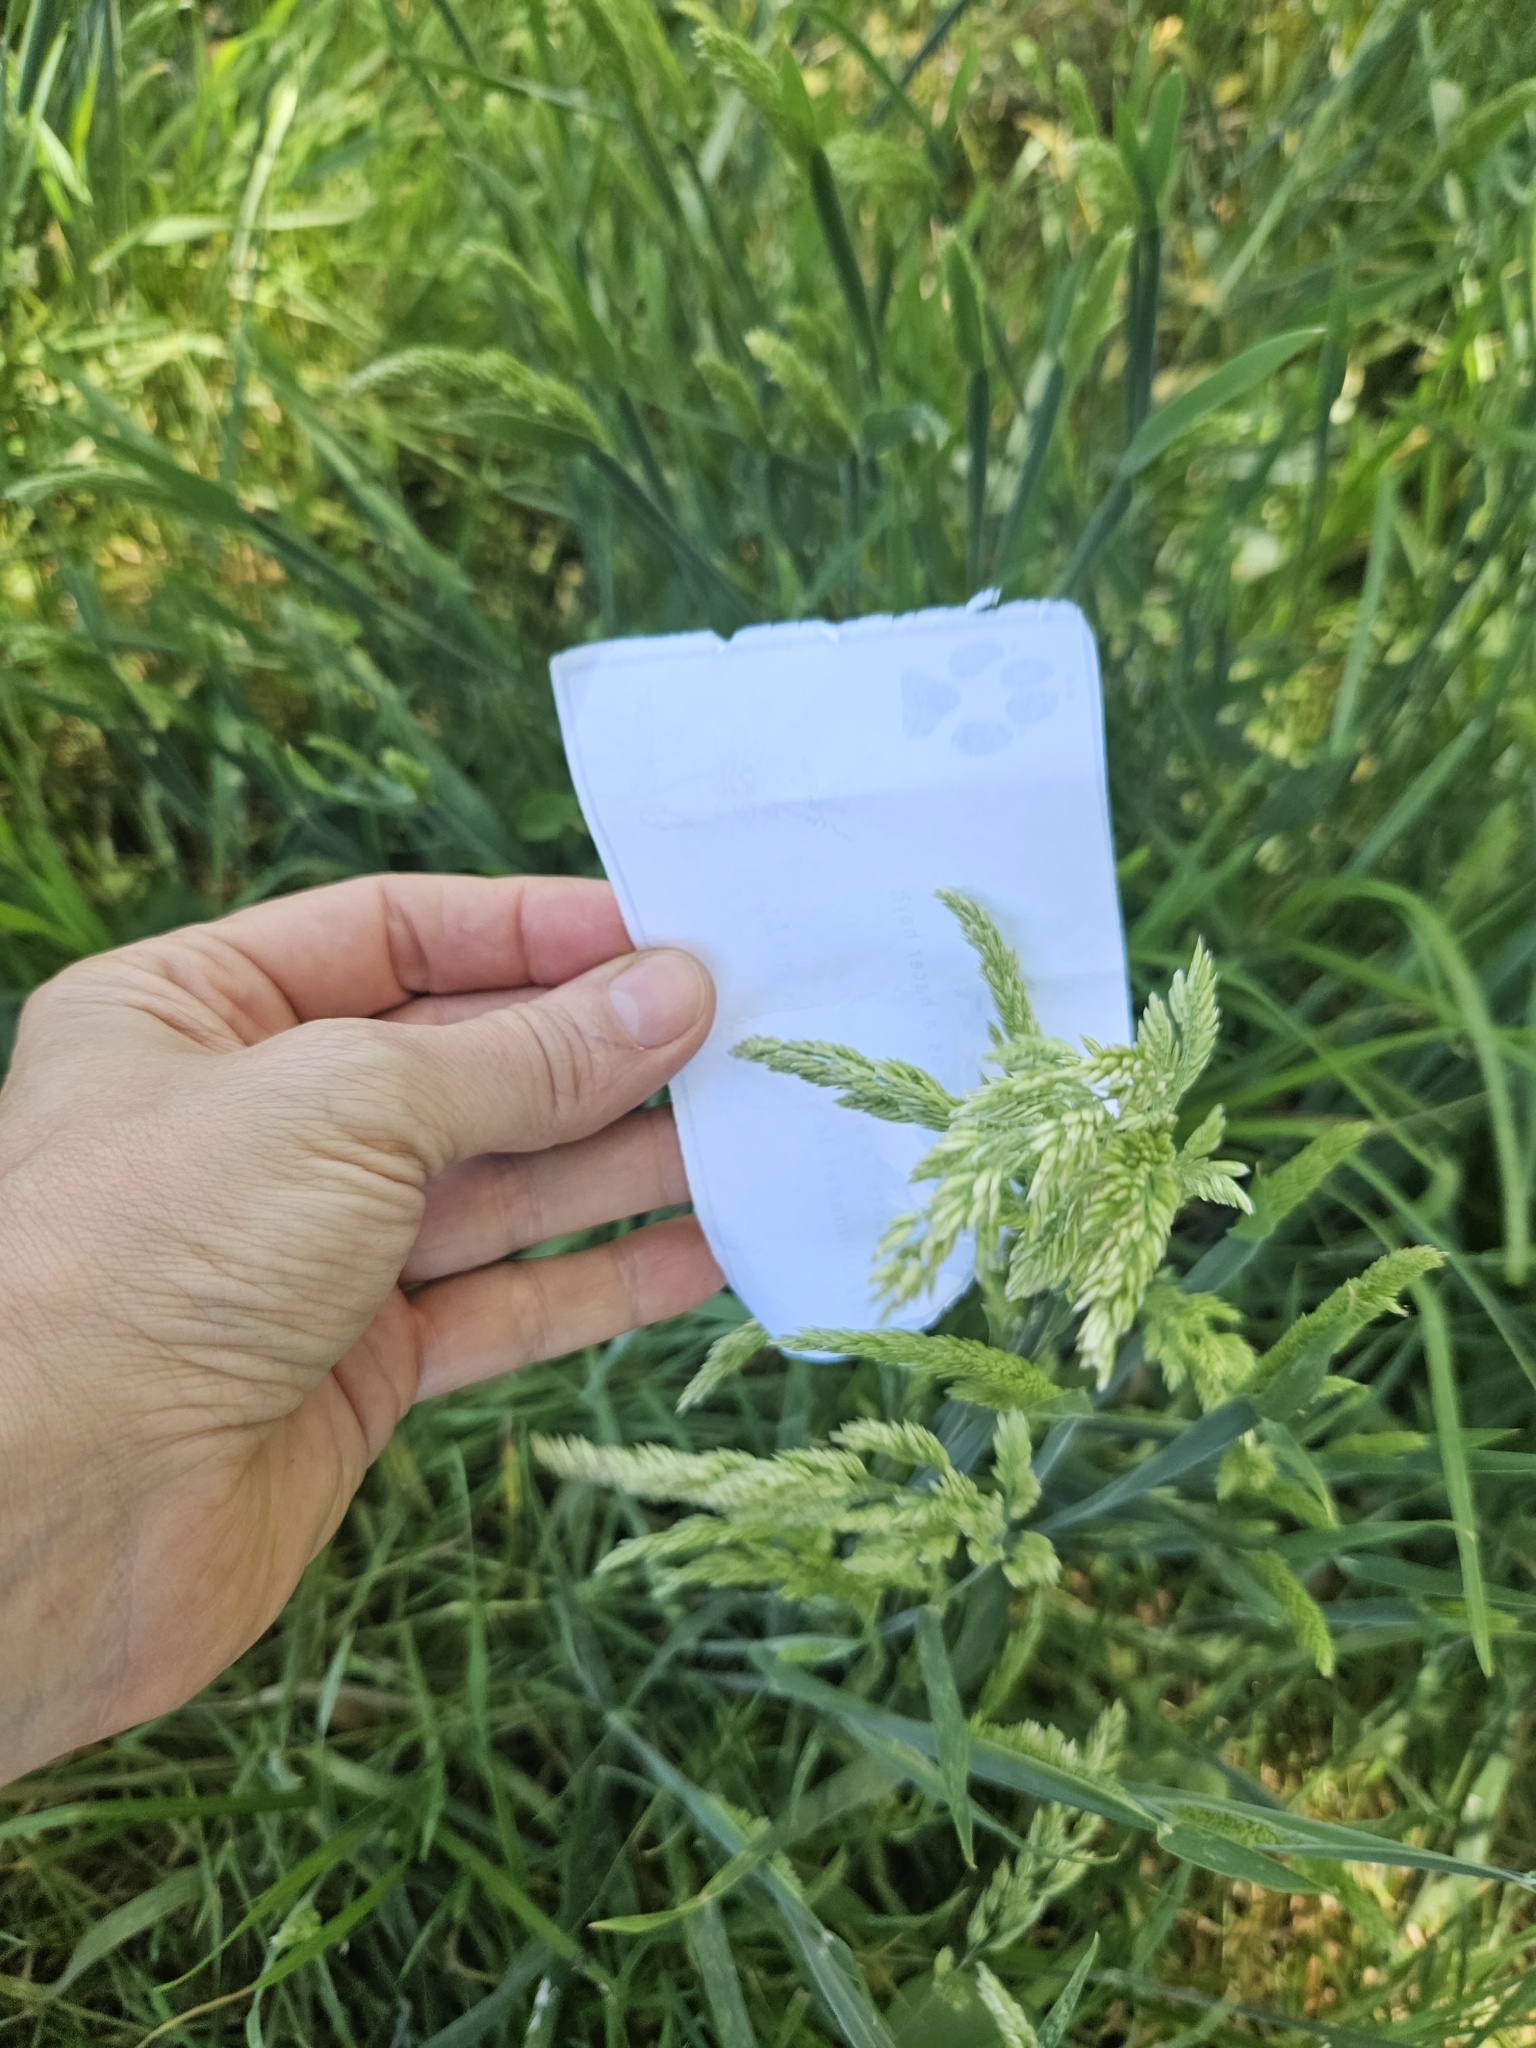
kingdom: Plantae
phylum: Tracheophyta
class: Liliopsida
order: Poales
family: Poaceae
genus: Holcus
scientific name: Holcus lanatus
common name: Yorkshire-fog
